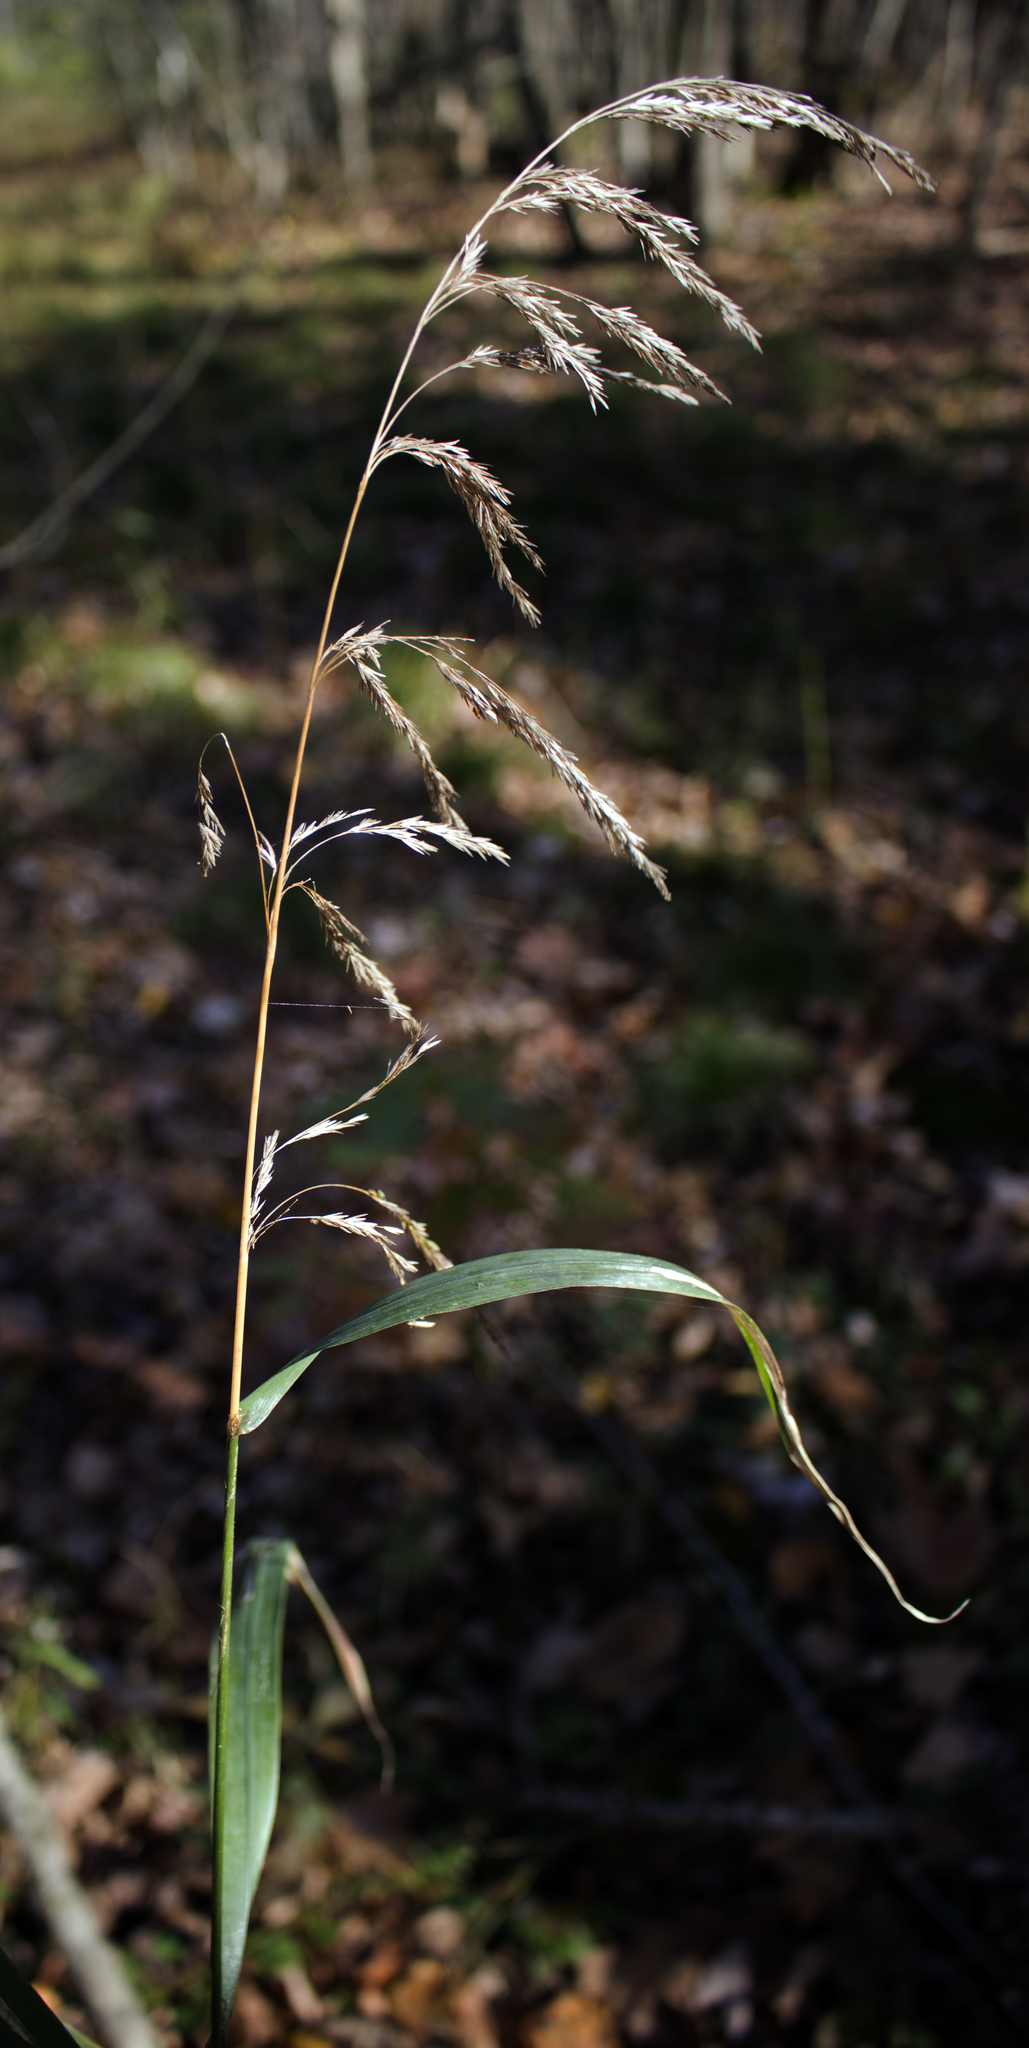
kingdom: Plantae
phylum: Tracheophyta
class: Liliopsida
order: Poales
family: Poaceae
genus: Cinna
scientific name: Cinna arundinacea
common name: Stout woodreed
